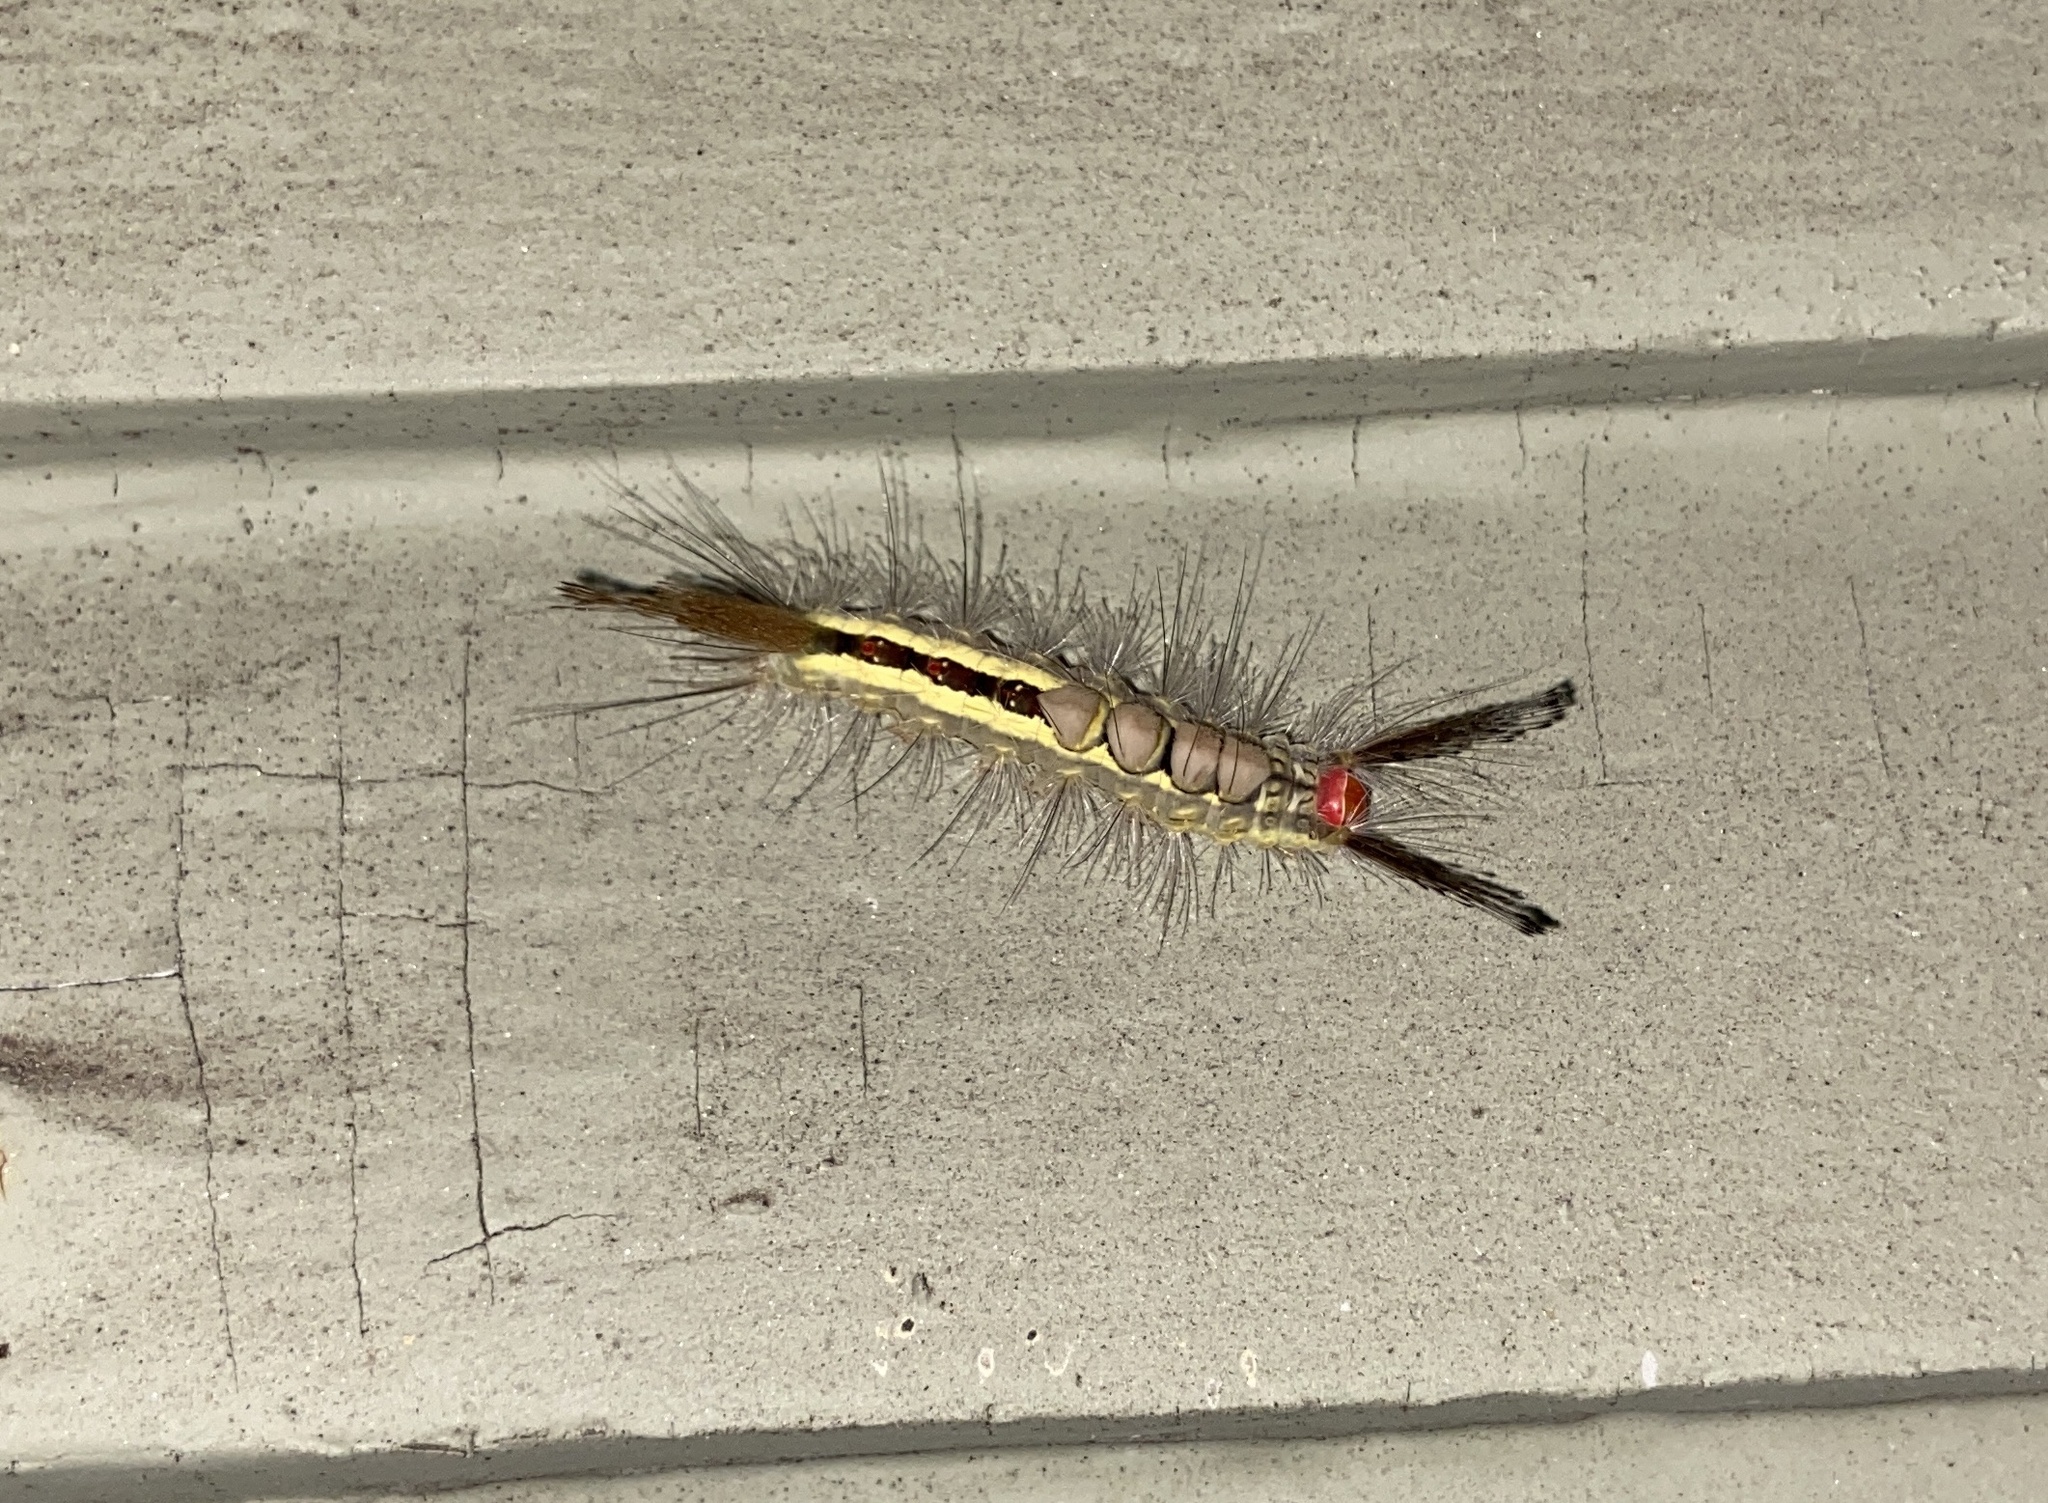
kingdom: Animalia
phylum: Arthropoda
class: Insecta
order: Lepidoptera
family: Erebidae
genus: Orgyia
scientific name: Orgyia leucostigma
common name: White-marked tussock moth
